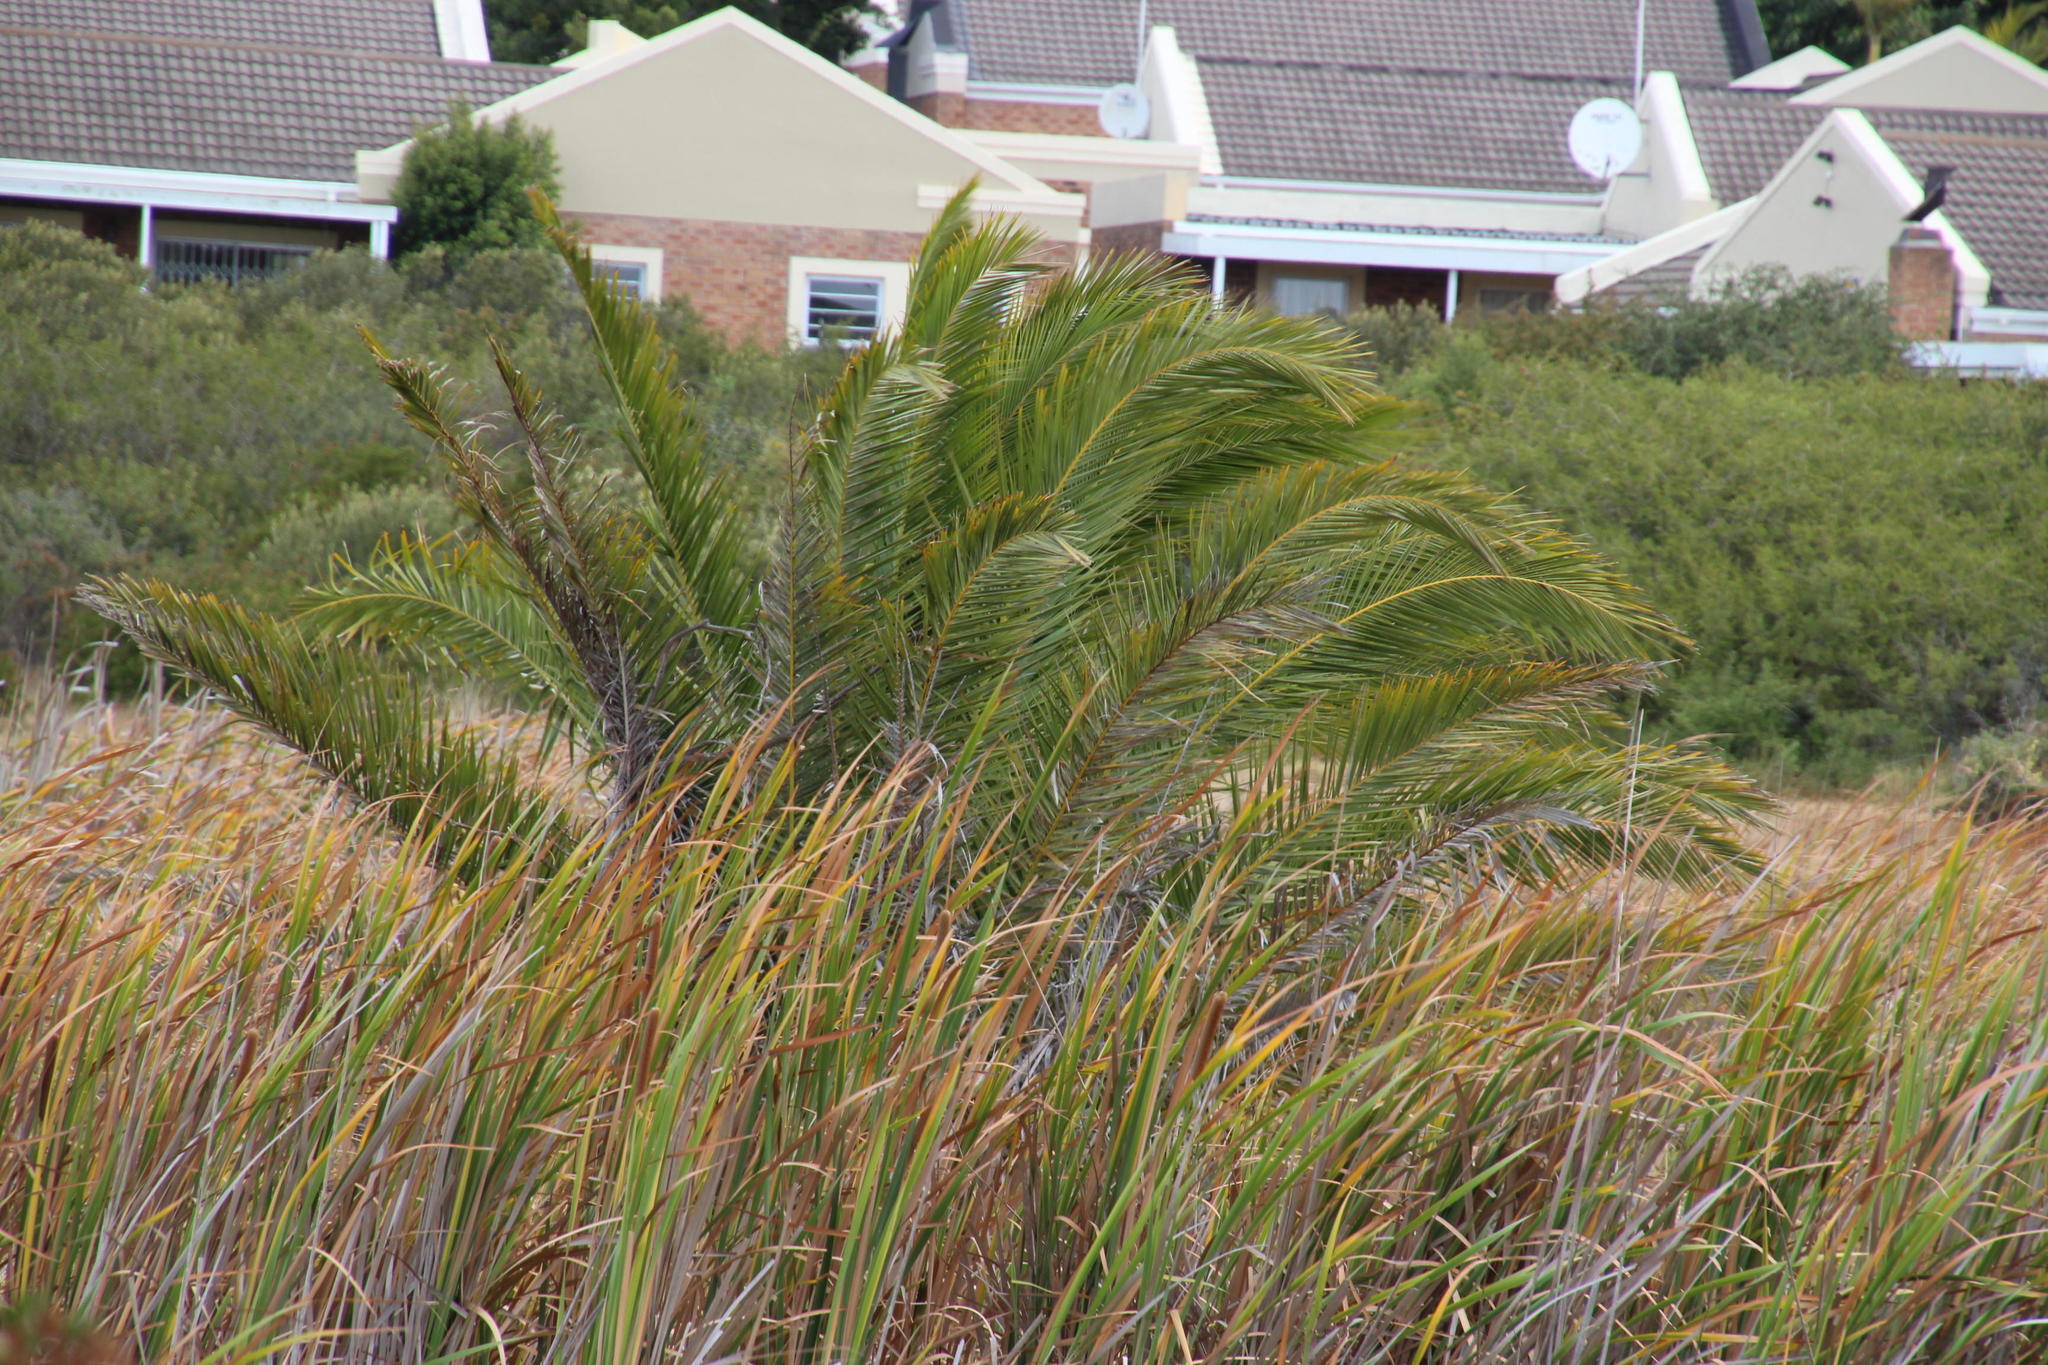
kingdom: Plantae
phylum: Tracheophyta
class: Liliopsida
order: Arecales
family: Arecaceae
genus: Phoenix
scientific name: Phoenix canariensis
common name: Canary island date palm
